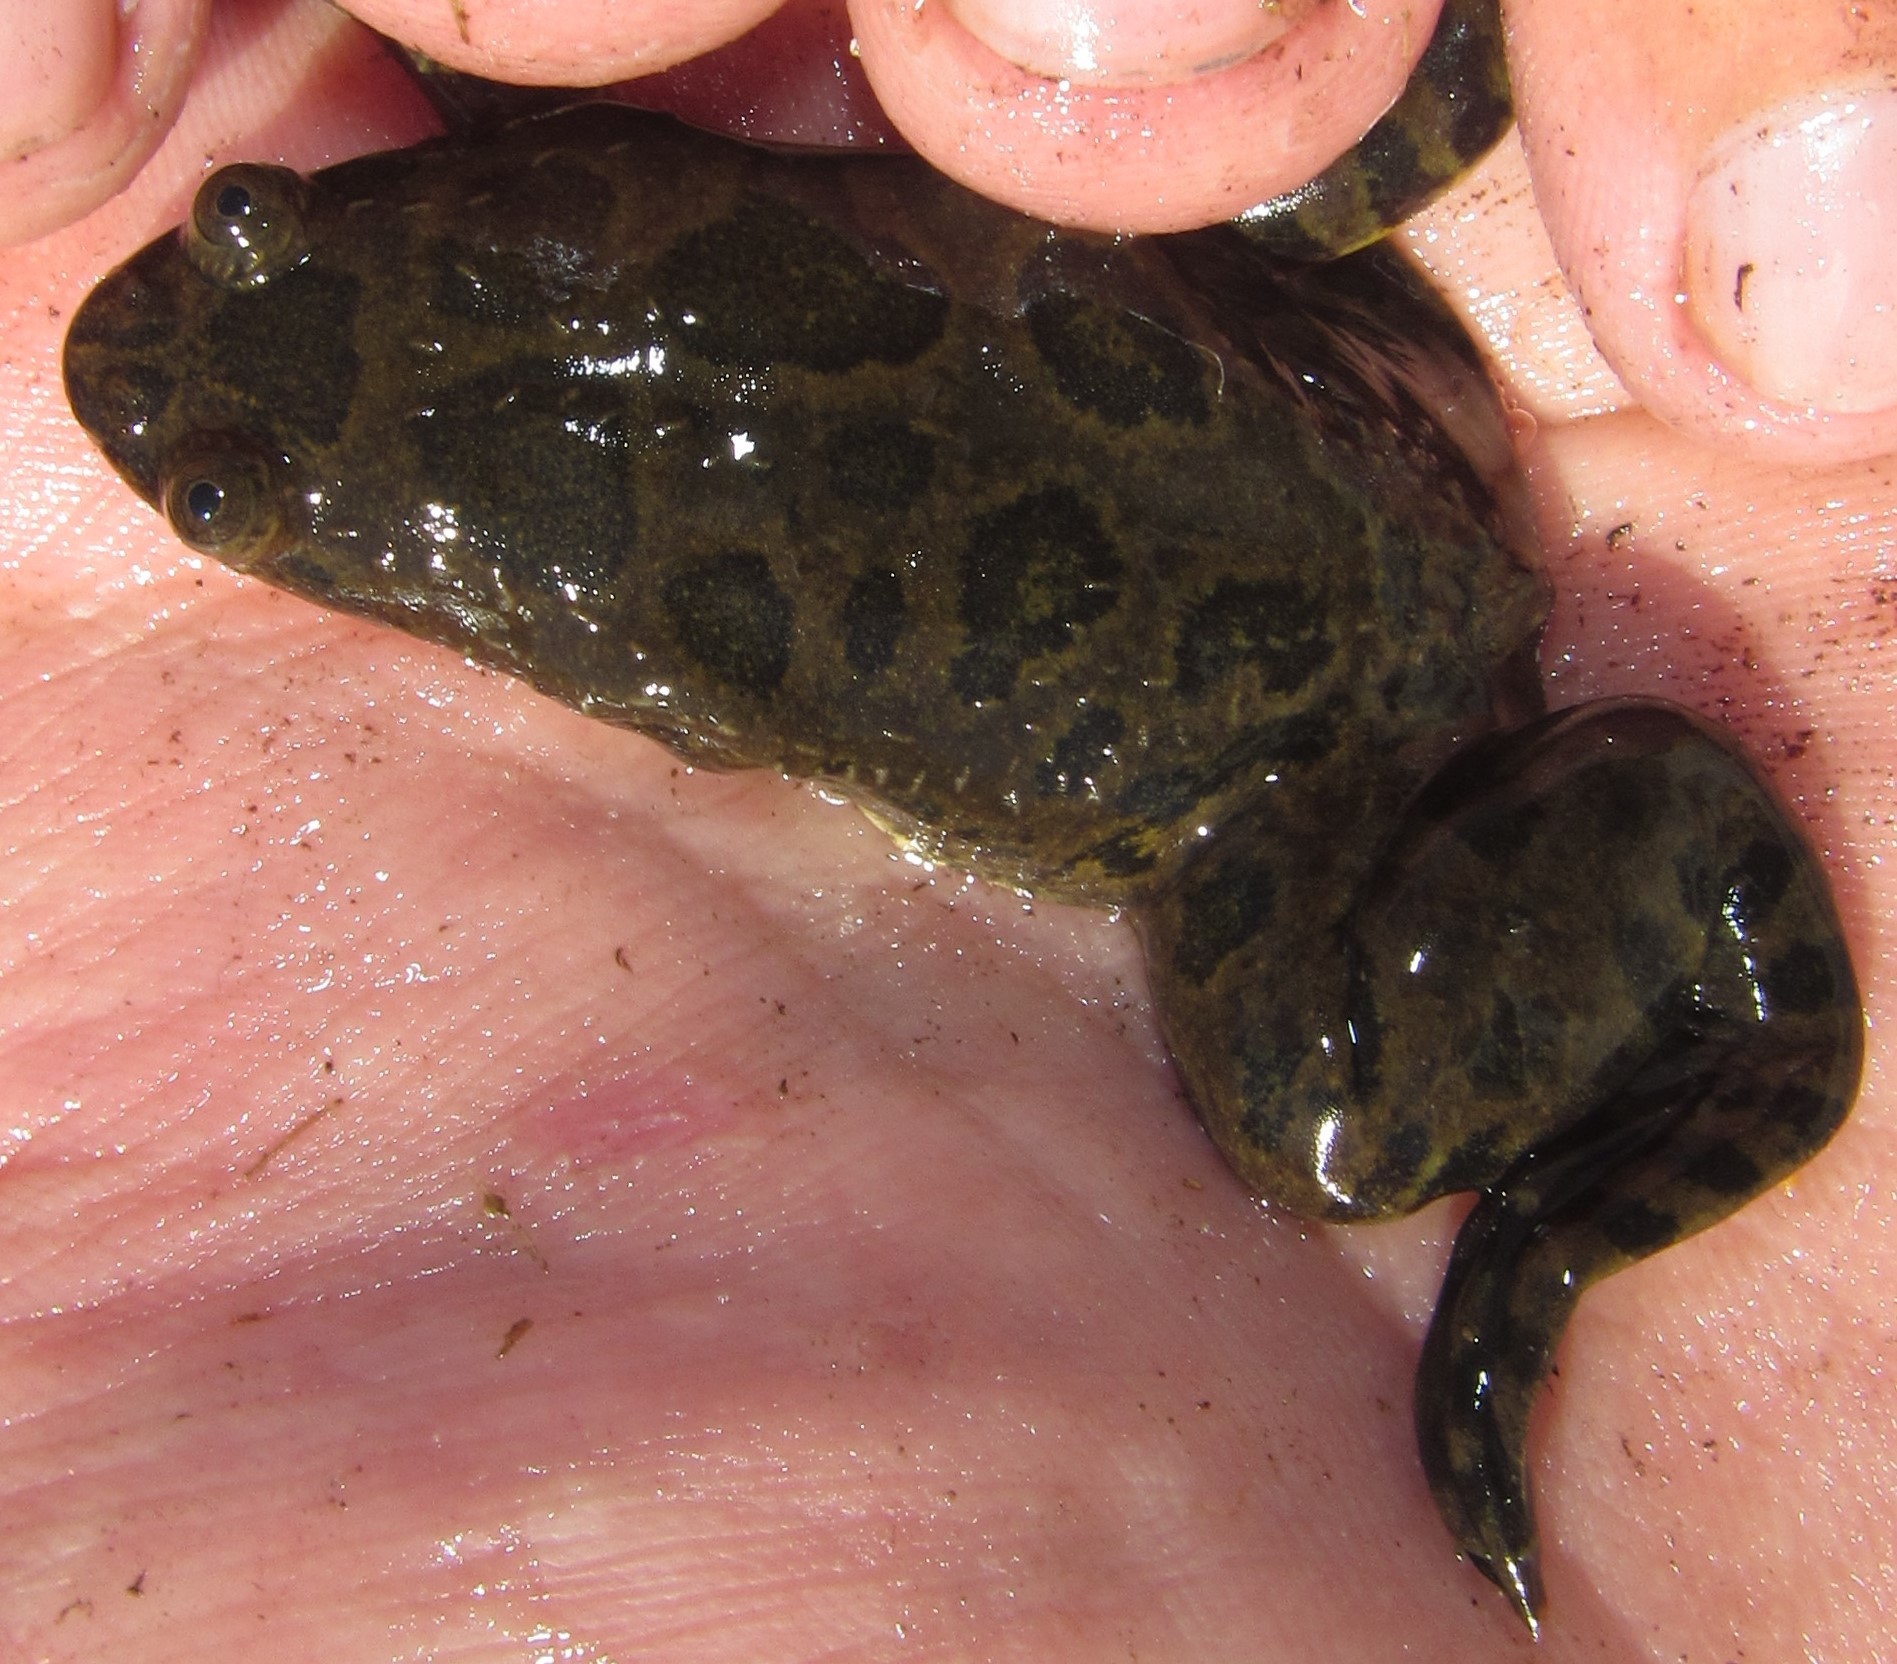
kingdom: Animalia
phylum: Chordata
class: Amphibia
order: Anura
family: Pipidae
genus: Xenopus
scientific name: Xenopus petersii
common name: Peters' clawed frog
